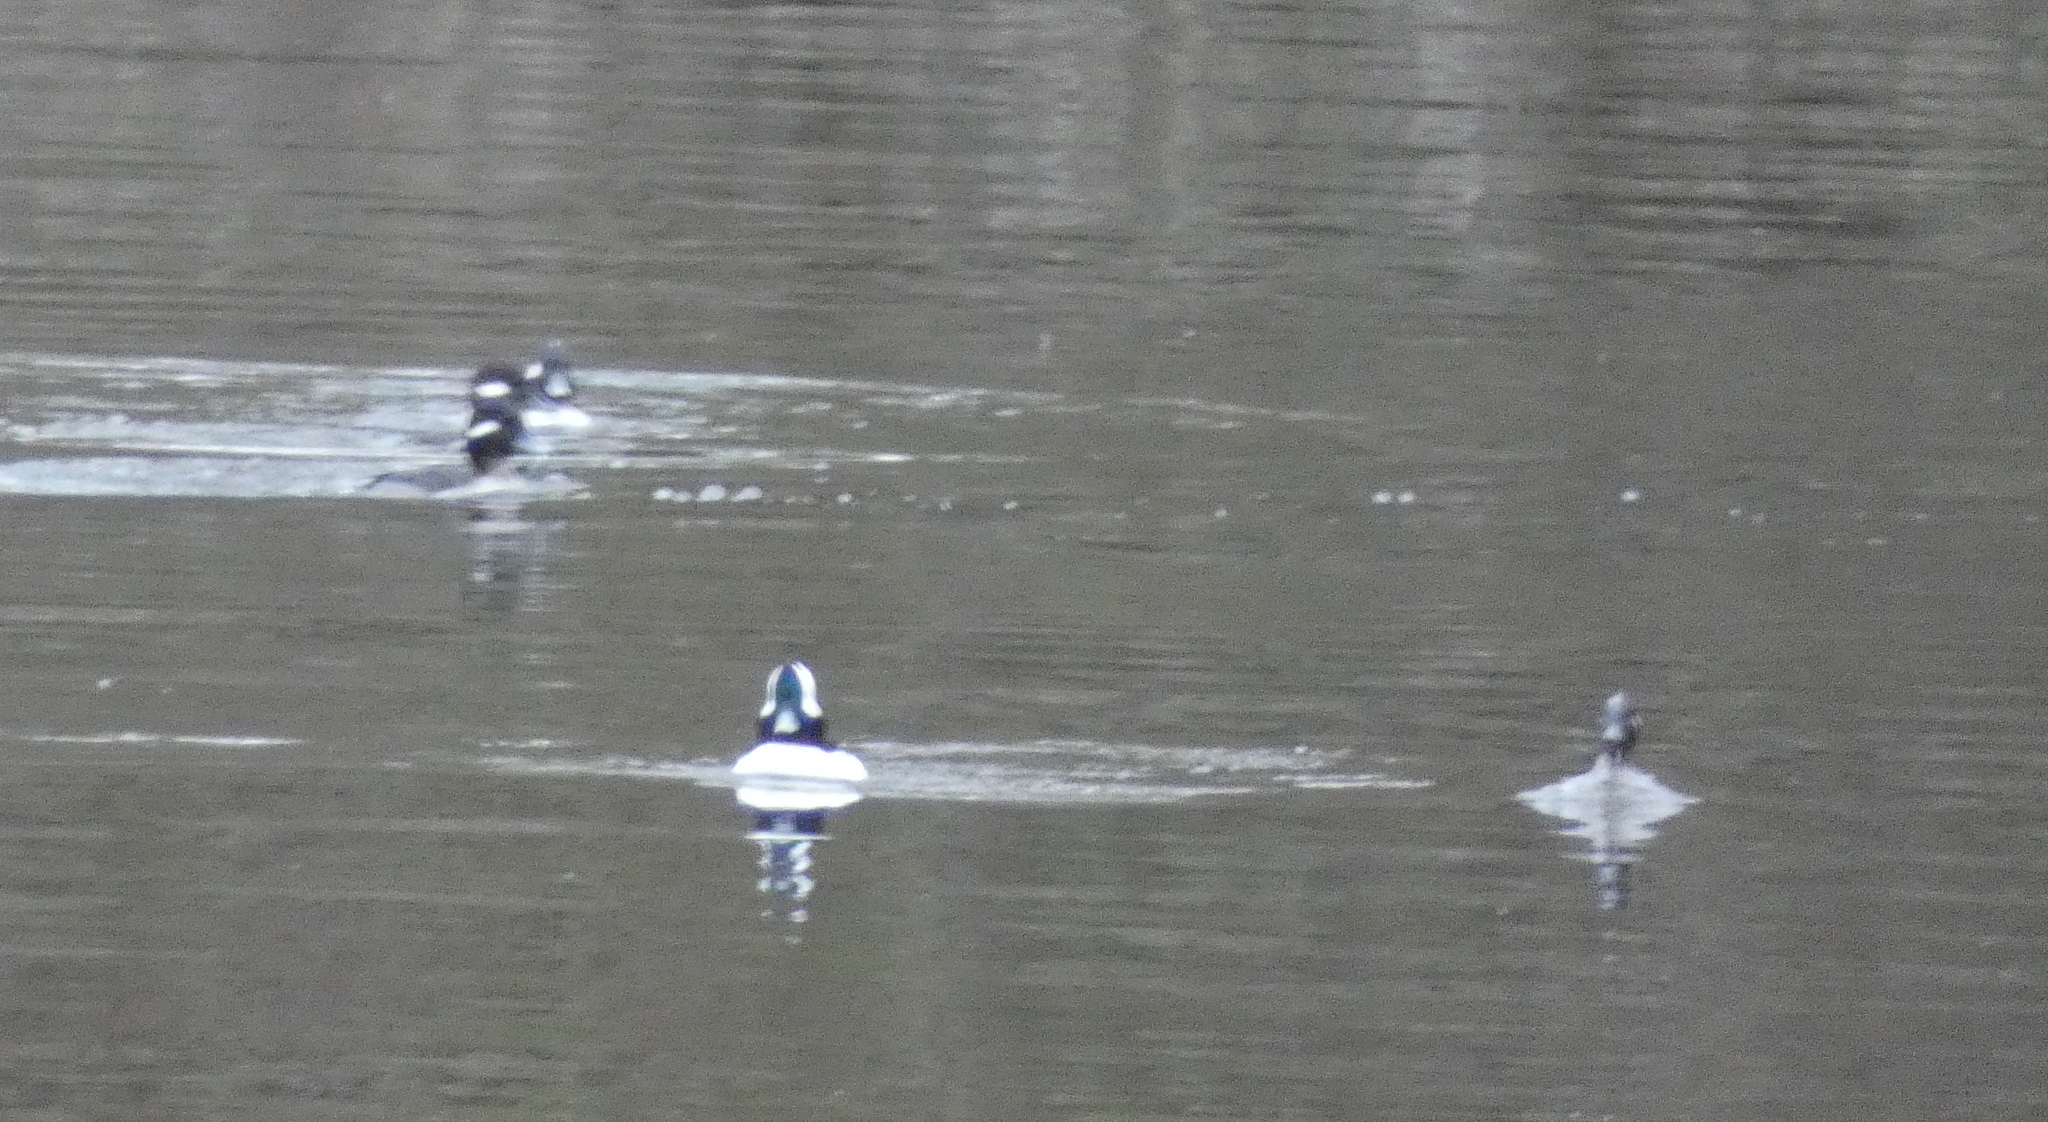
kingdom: Animalia
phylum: Chordata
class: Aves
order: Anseriformes
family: Anatidae
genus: Bucephala
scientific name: Bucephala albeola
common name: Bufflehead
